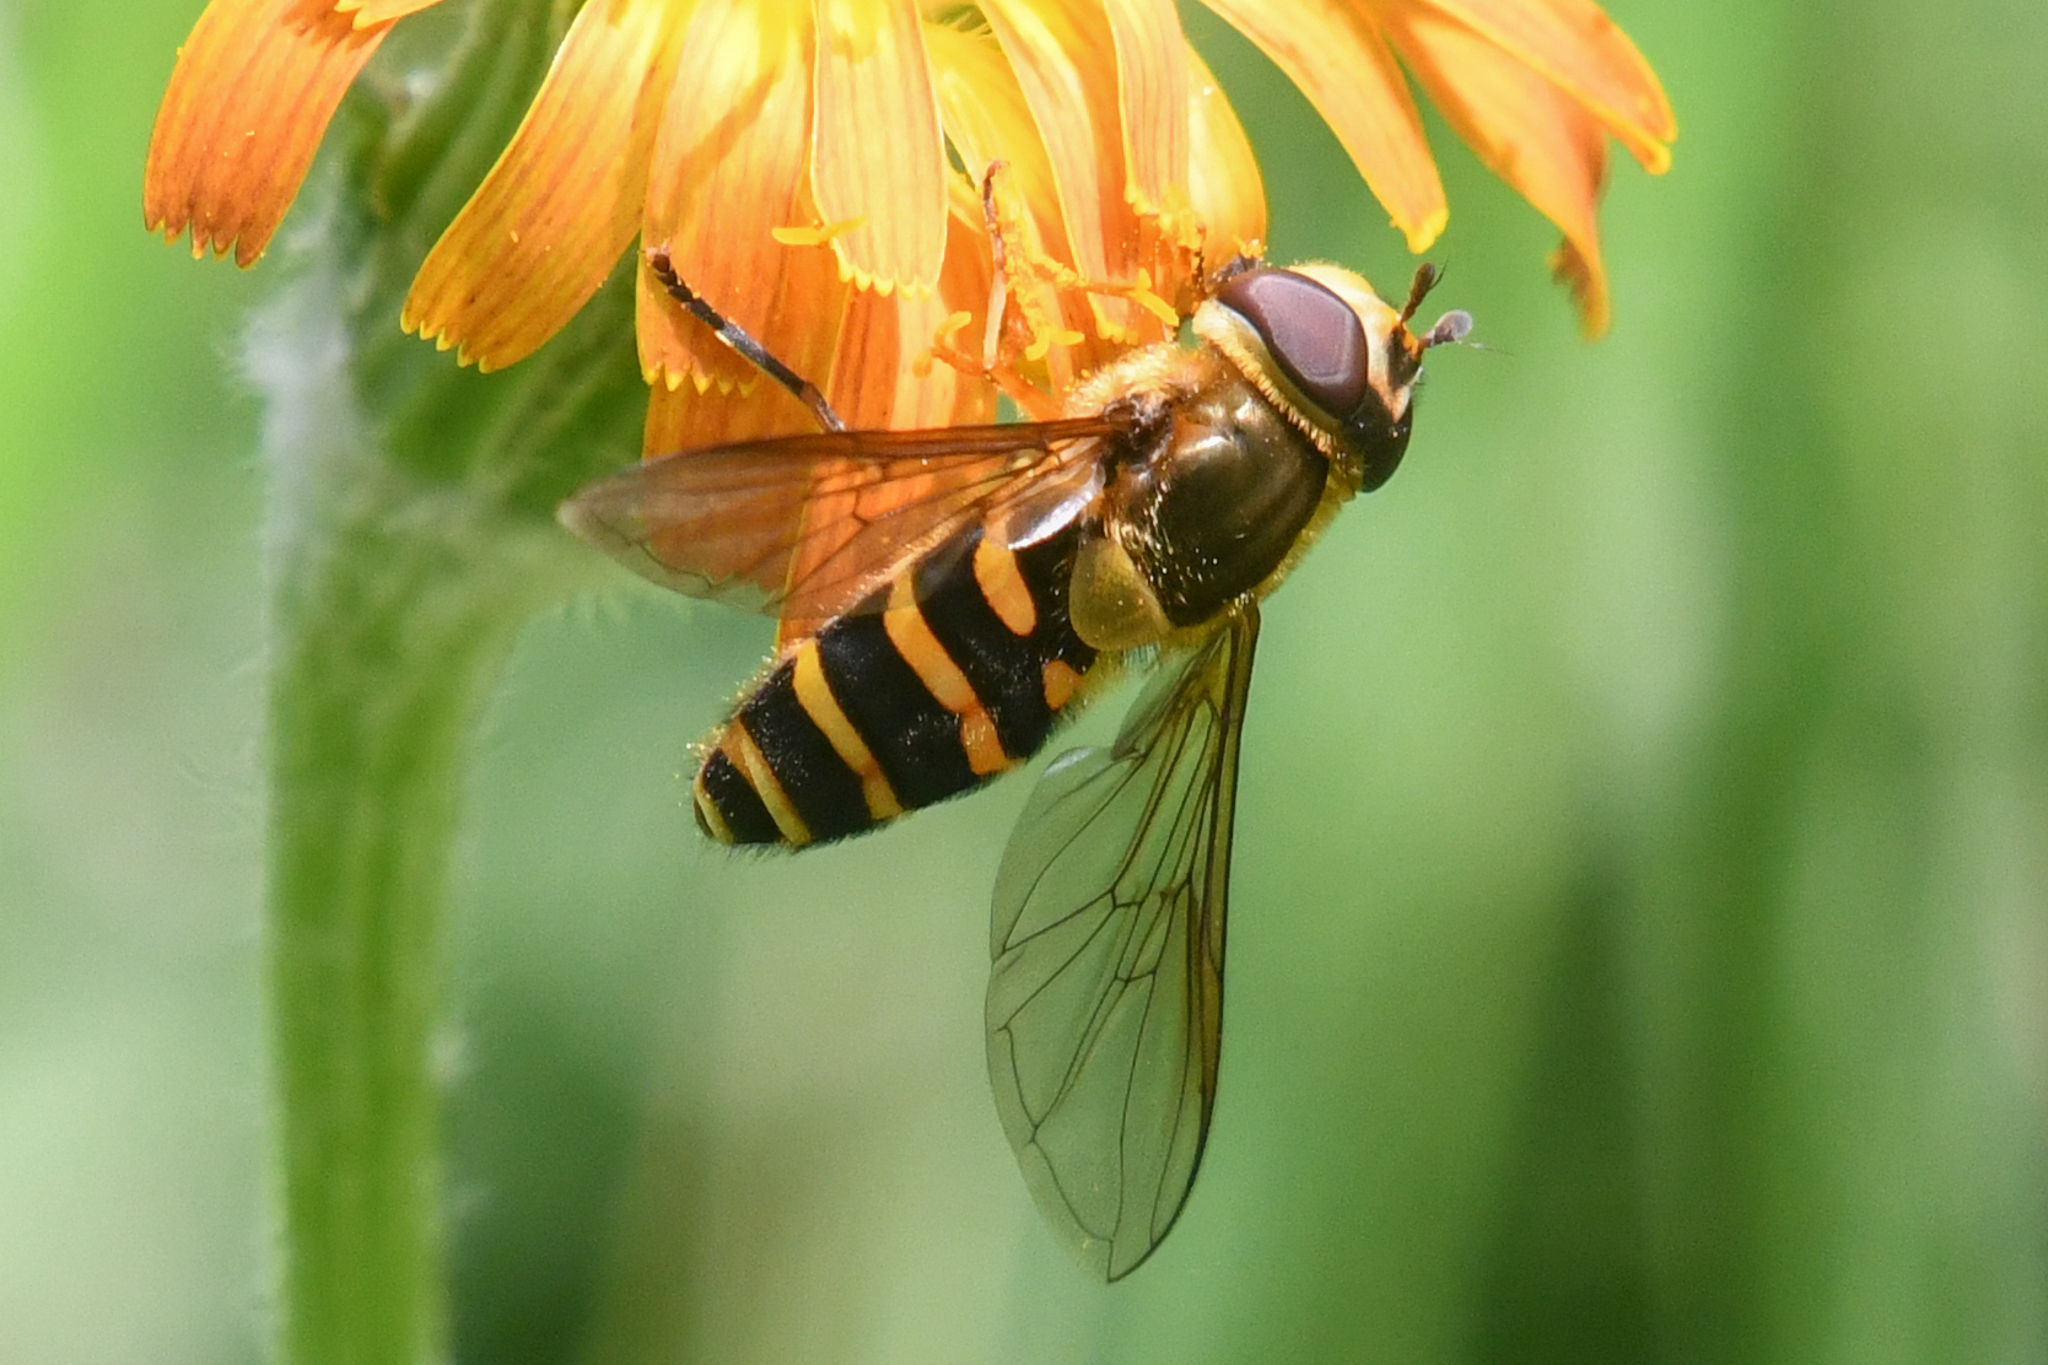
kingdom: Animalia
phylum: Arthropoda
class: Insecta
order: Diptera
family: Syrphidae
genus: Syrphus
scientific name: Syrphus
